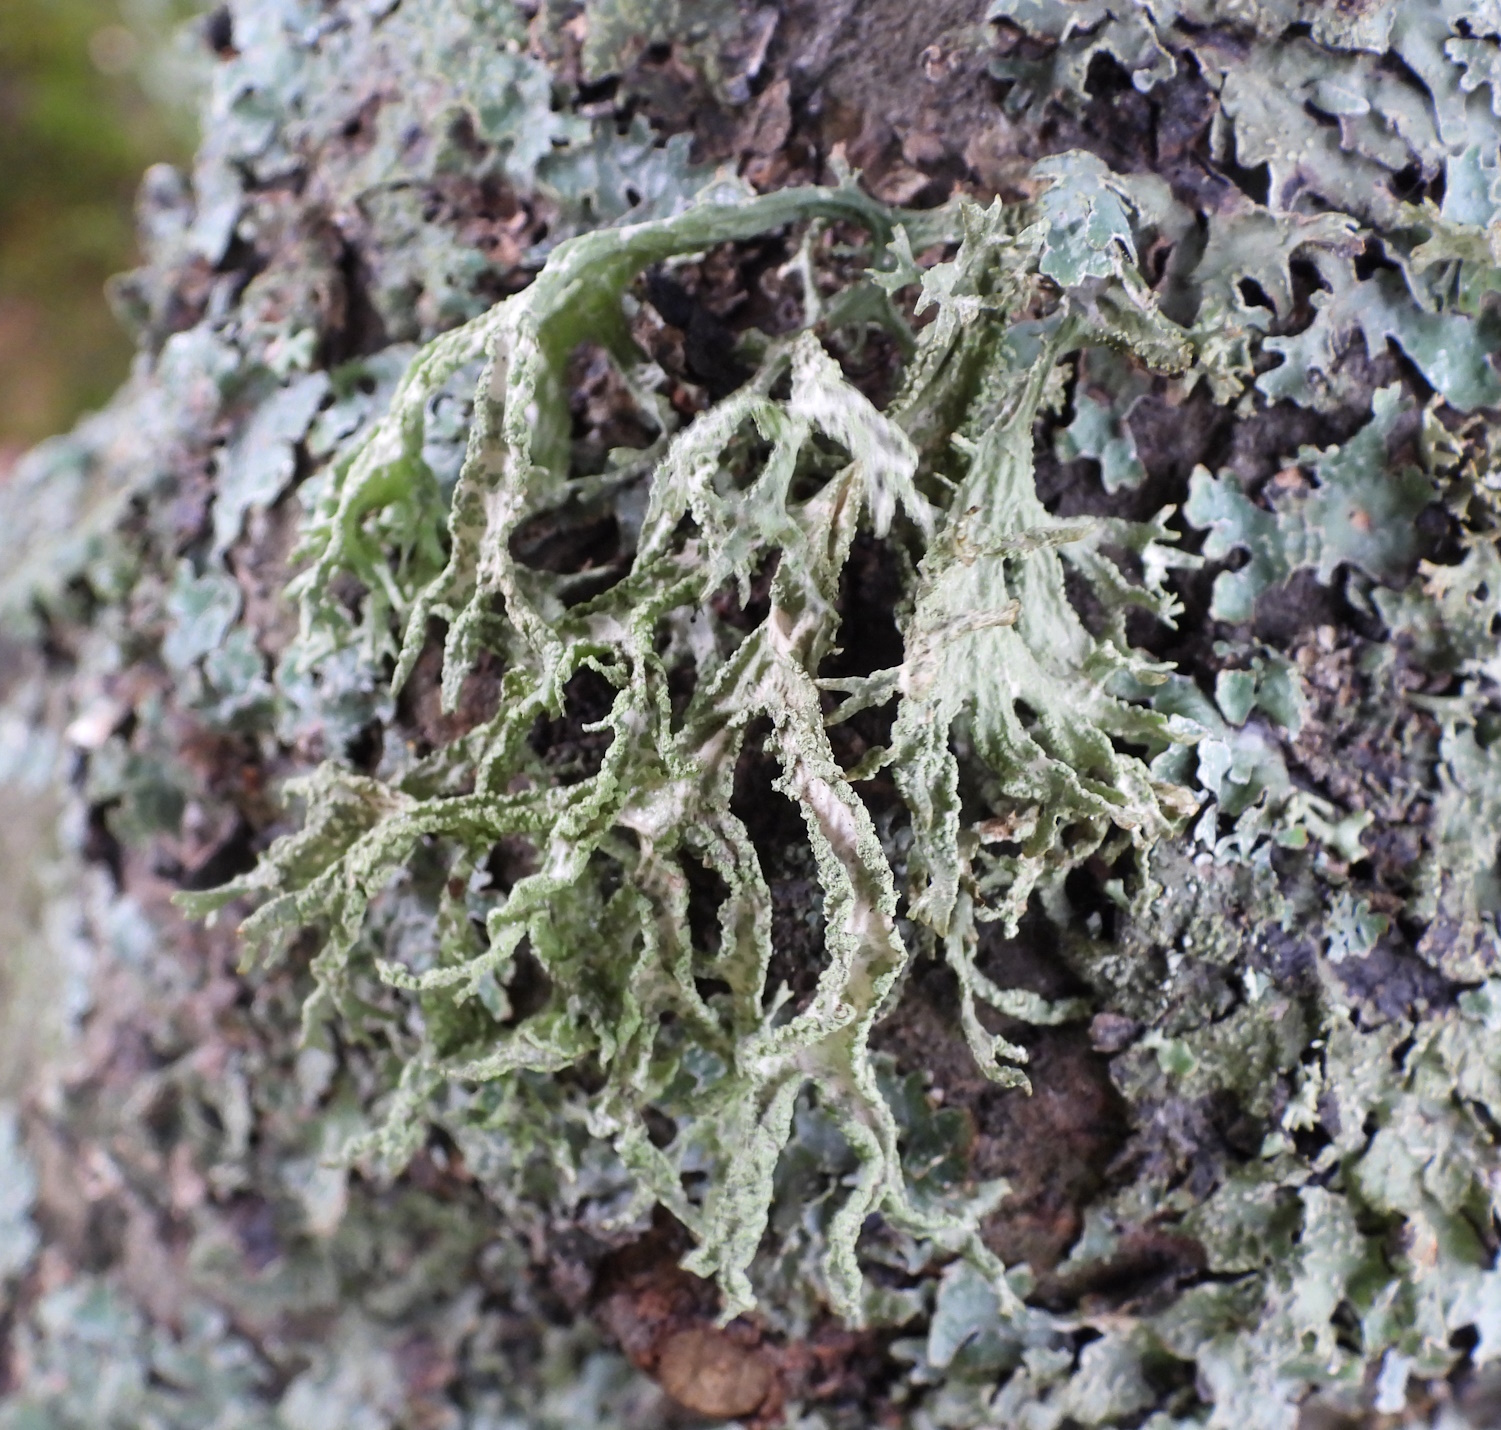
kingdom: Fungi
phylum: Ascomycota
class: Lecanoromycetes
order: Lecanorales
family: Parmeliaceae
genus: Evernia
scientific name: Evernia prunastri
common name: Oak moss
